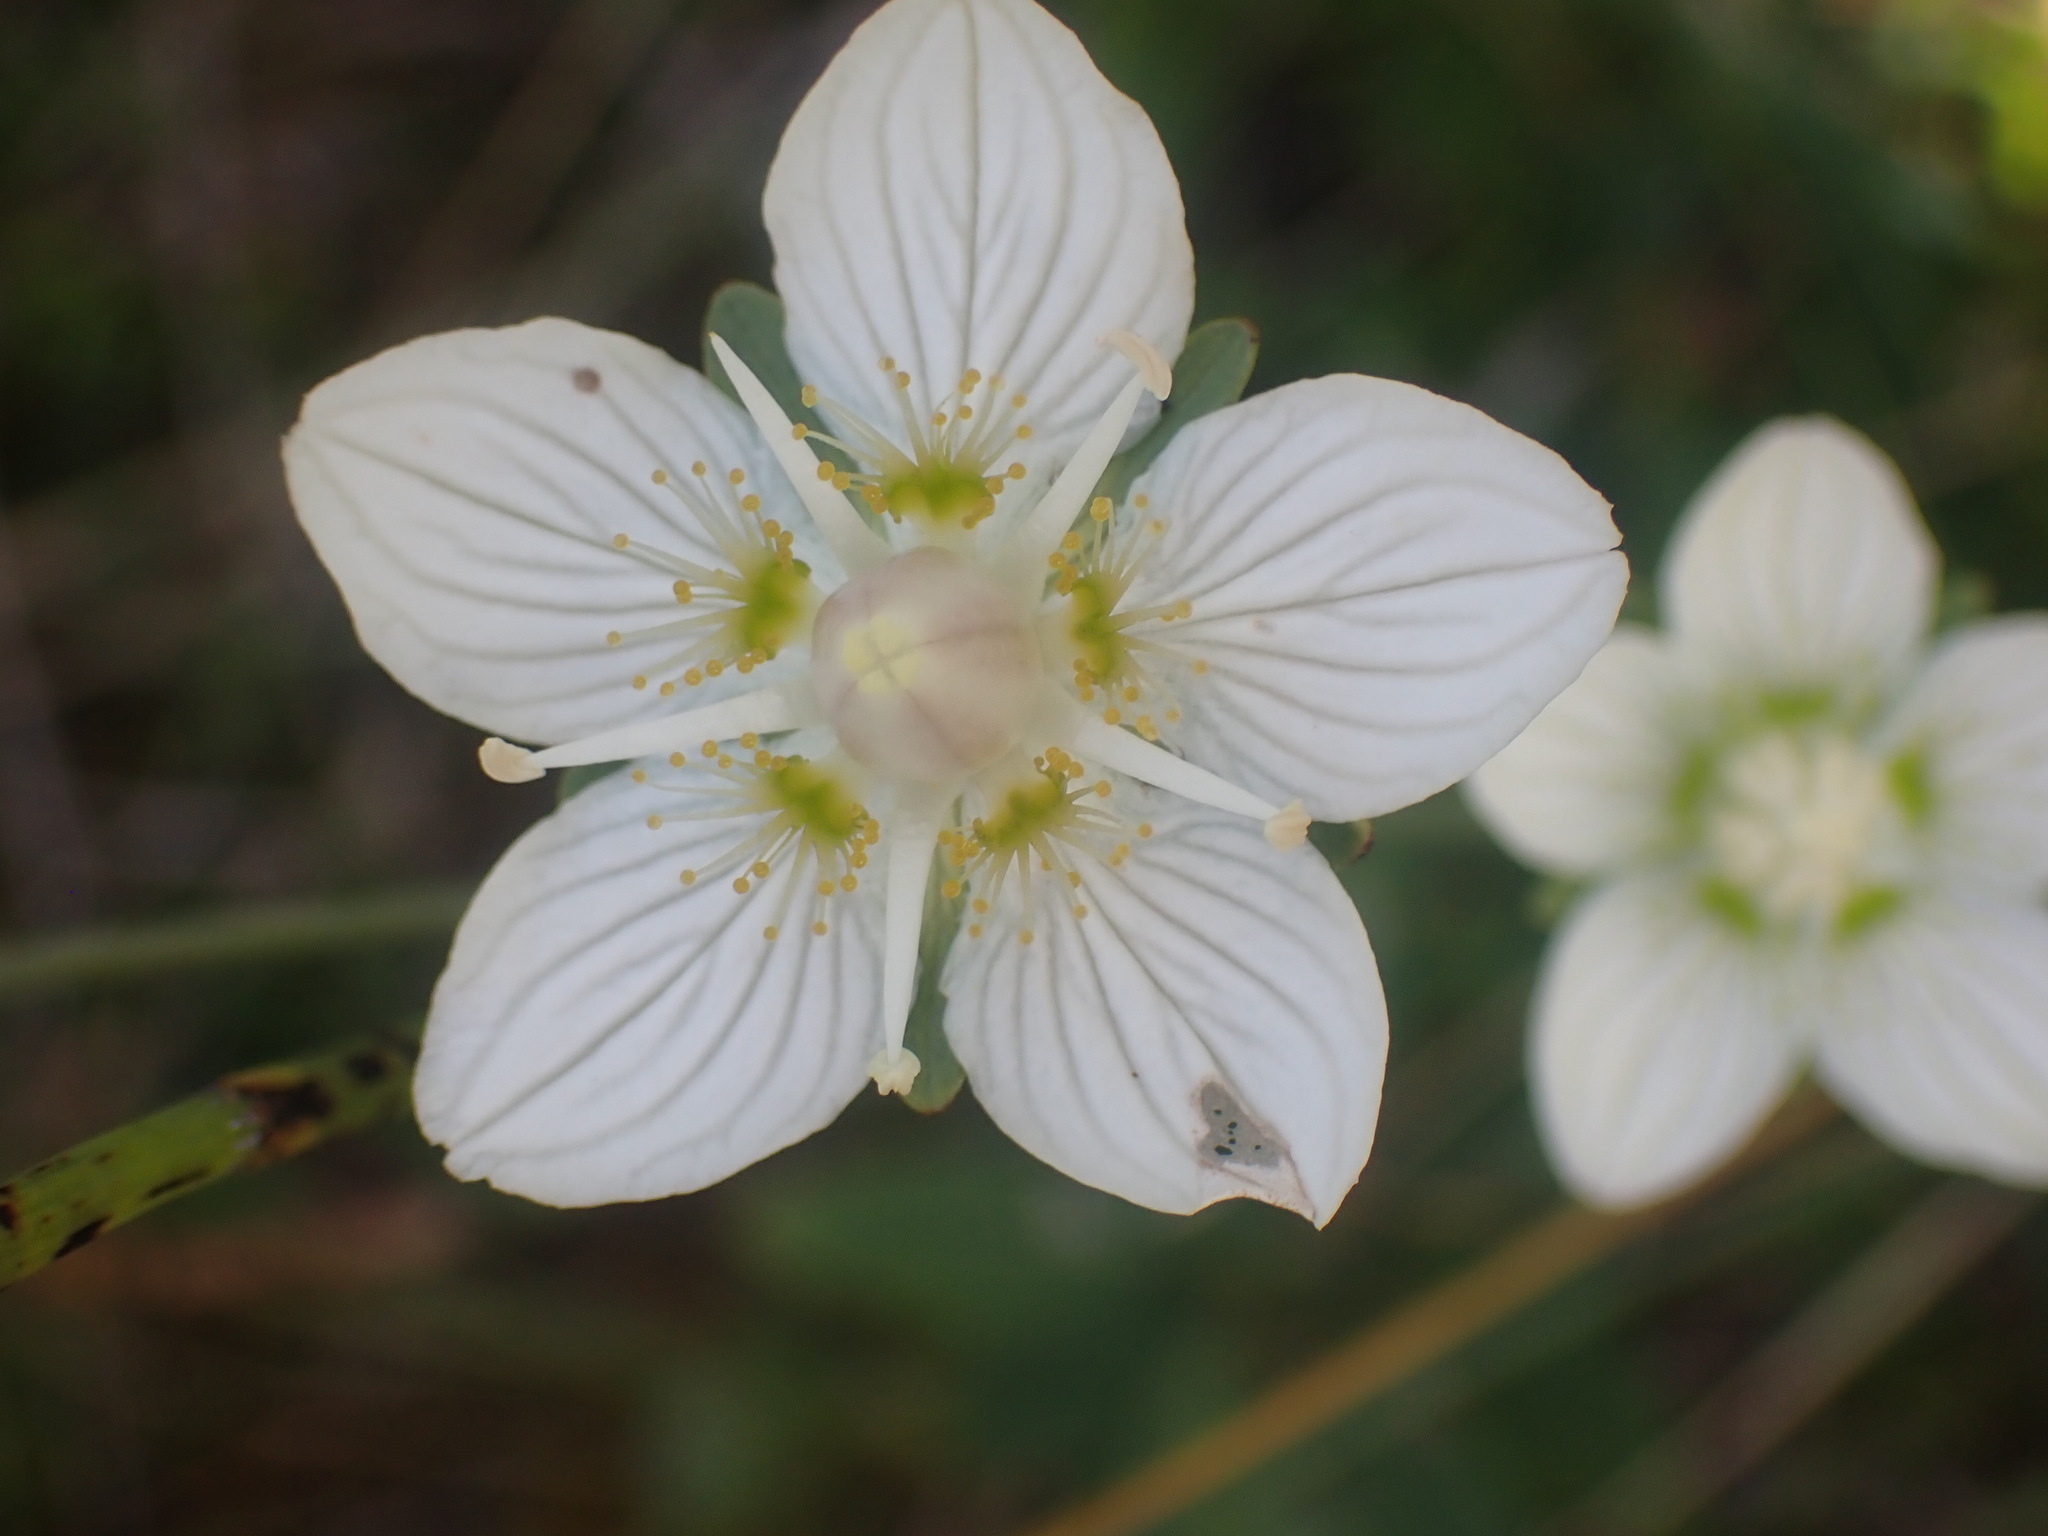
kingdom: Plantae
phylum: Tracheophyta
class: Magnoliopsida
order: Celastrales
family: Parnassiaceae
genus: Parnassia
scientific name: Parnassia palustris
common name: Grass-of-parnassus
